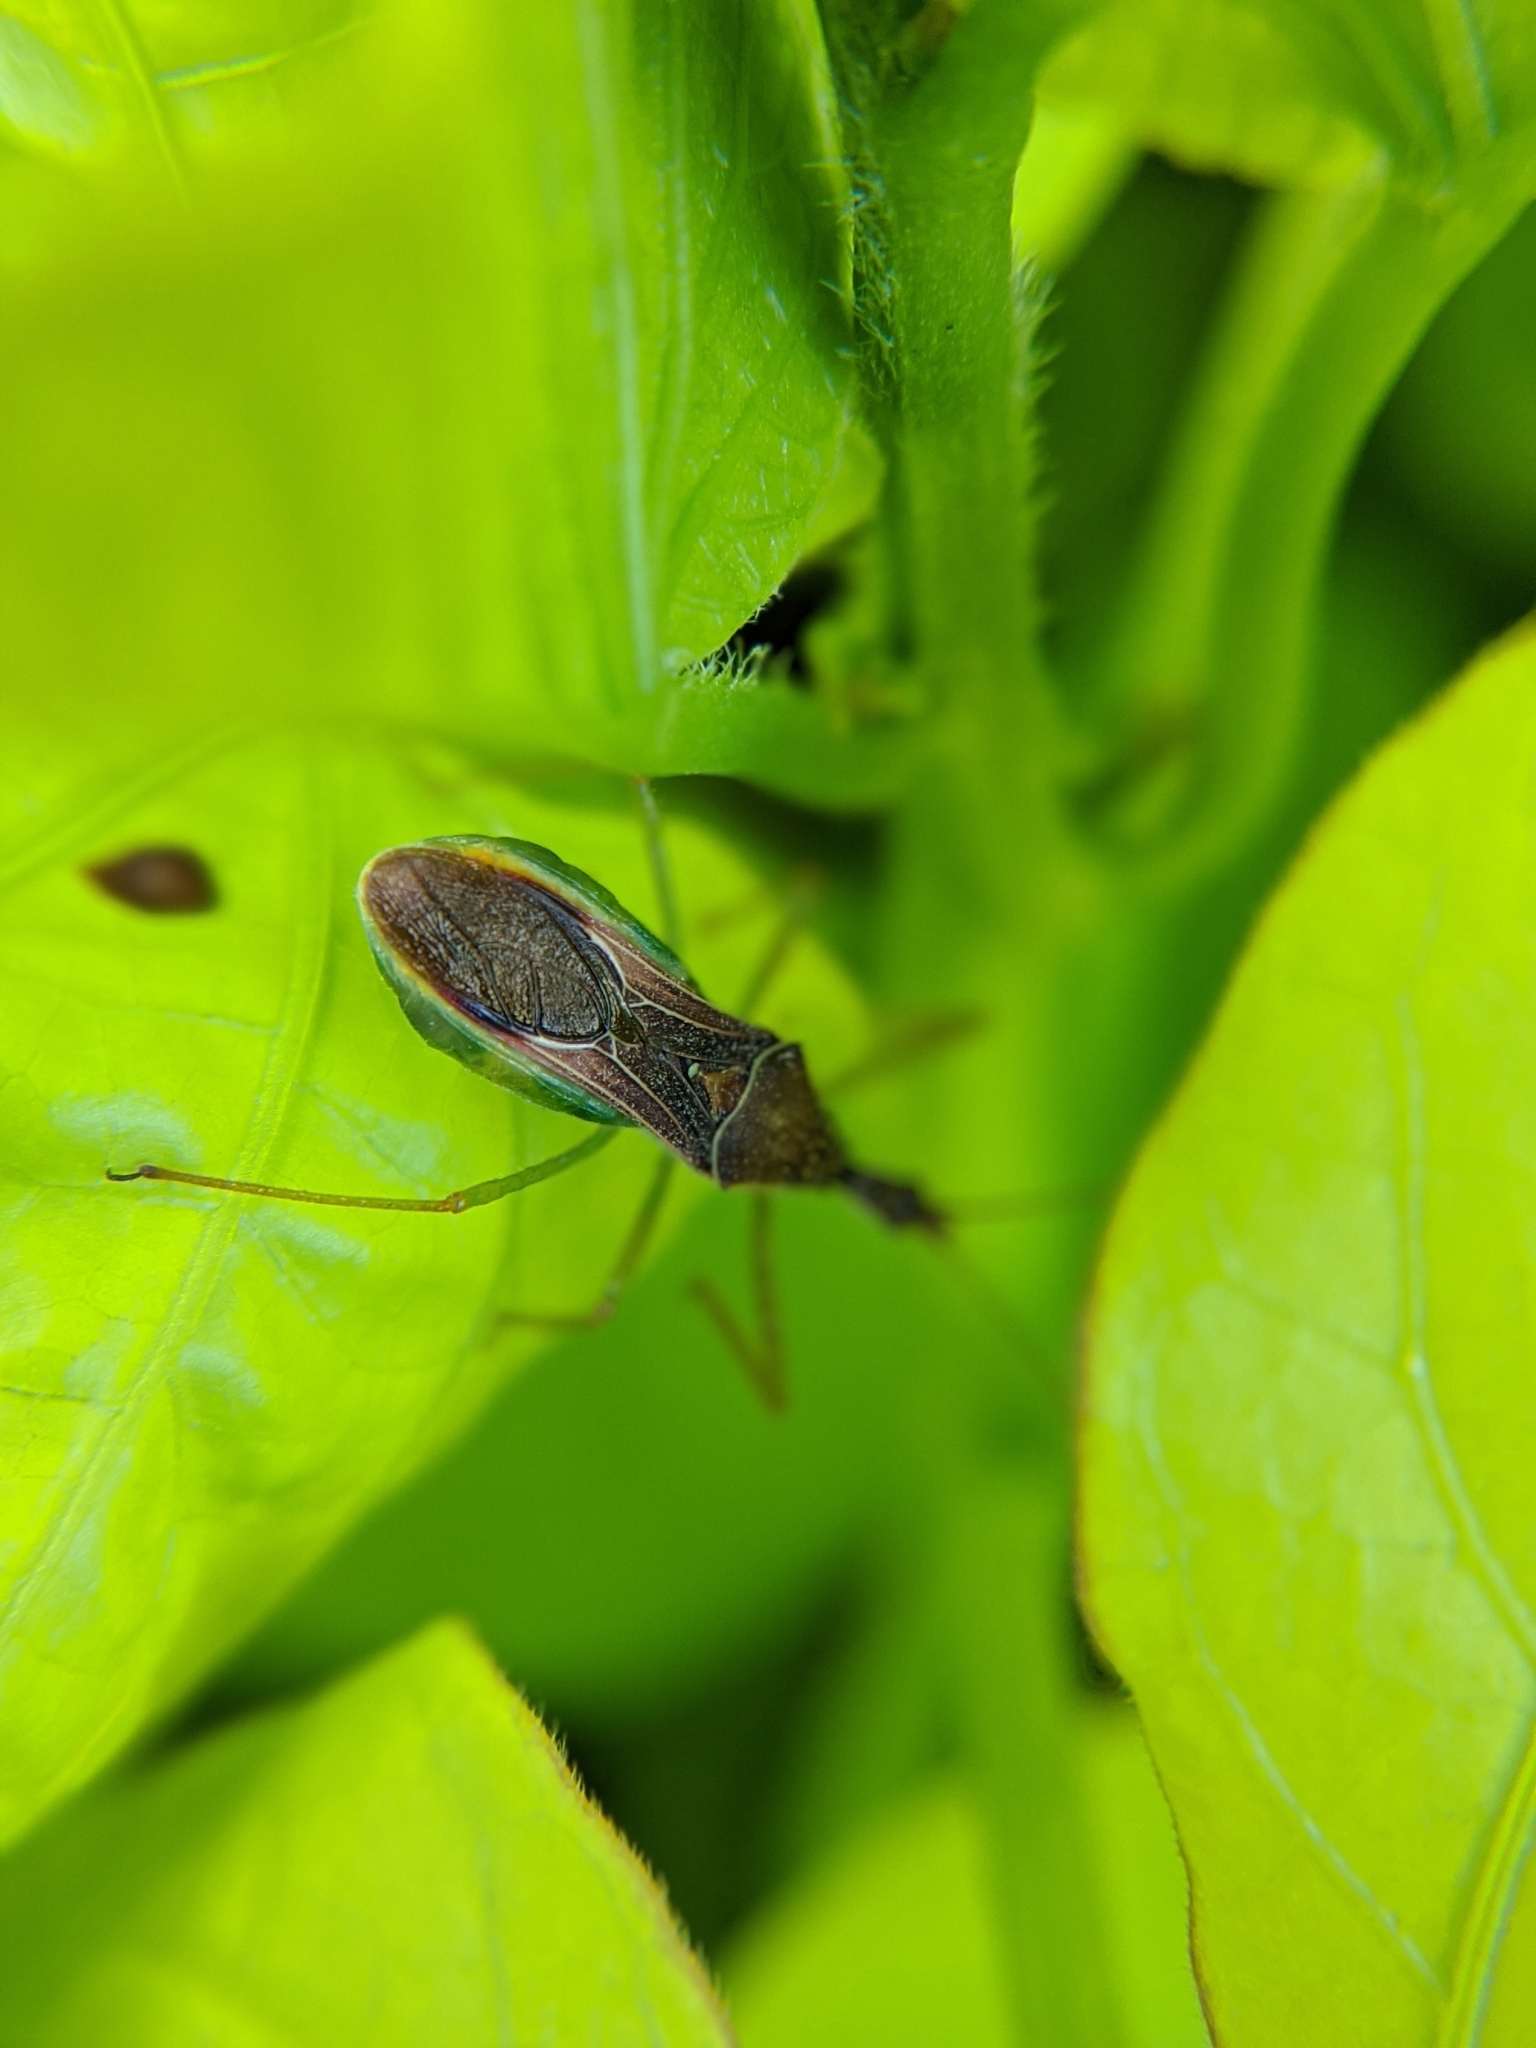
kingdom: Animalia
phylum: Arthropoda
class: Insecta
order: Hemiptera
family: Reduviidae
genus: Zelus
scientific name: Zelus renardii
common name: Assassin bug
